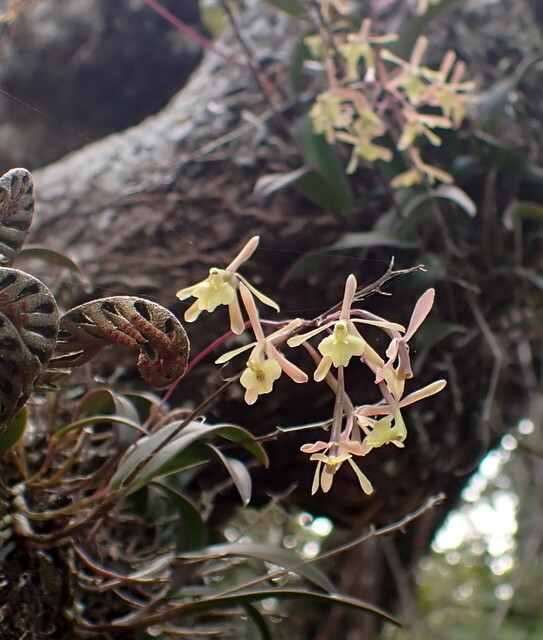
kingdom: Plantae
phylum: Tracheophyta
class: Liliopsida
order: Asparagales
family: Orchidaceae
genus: Epidendrum
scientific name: Epidendrum conopseum
